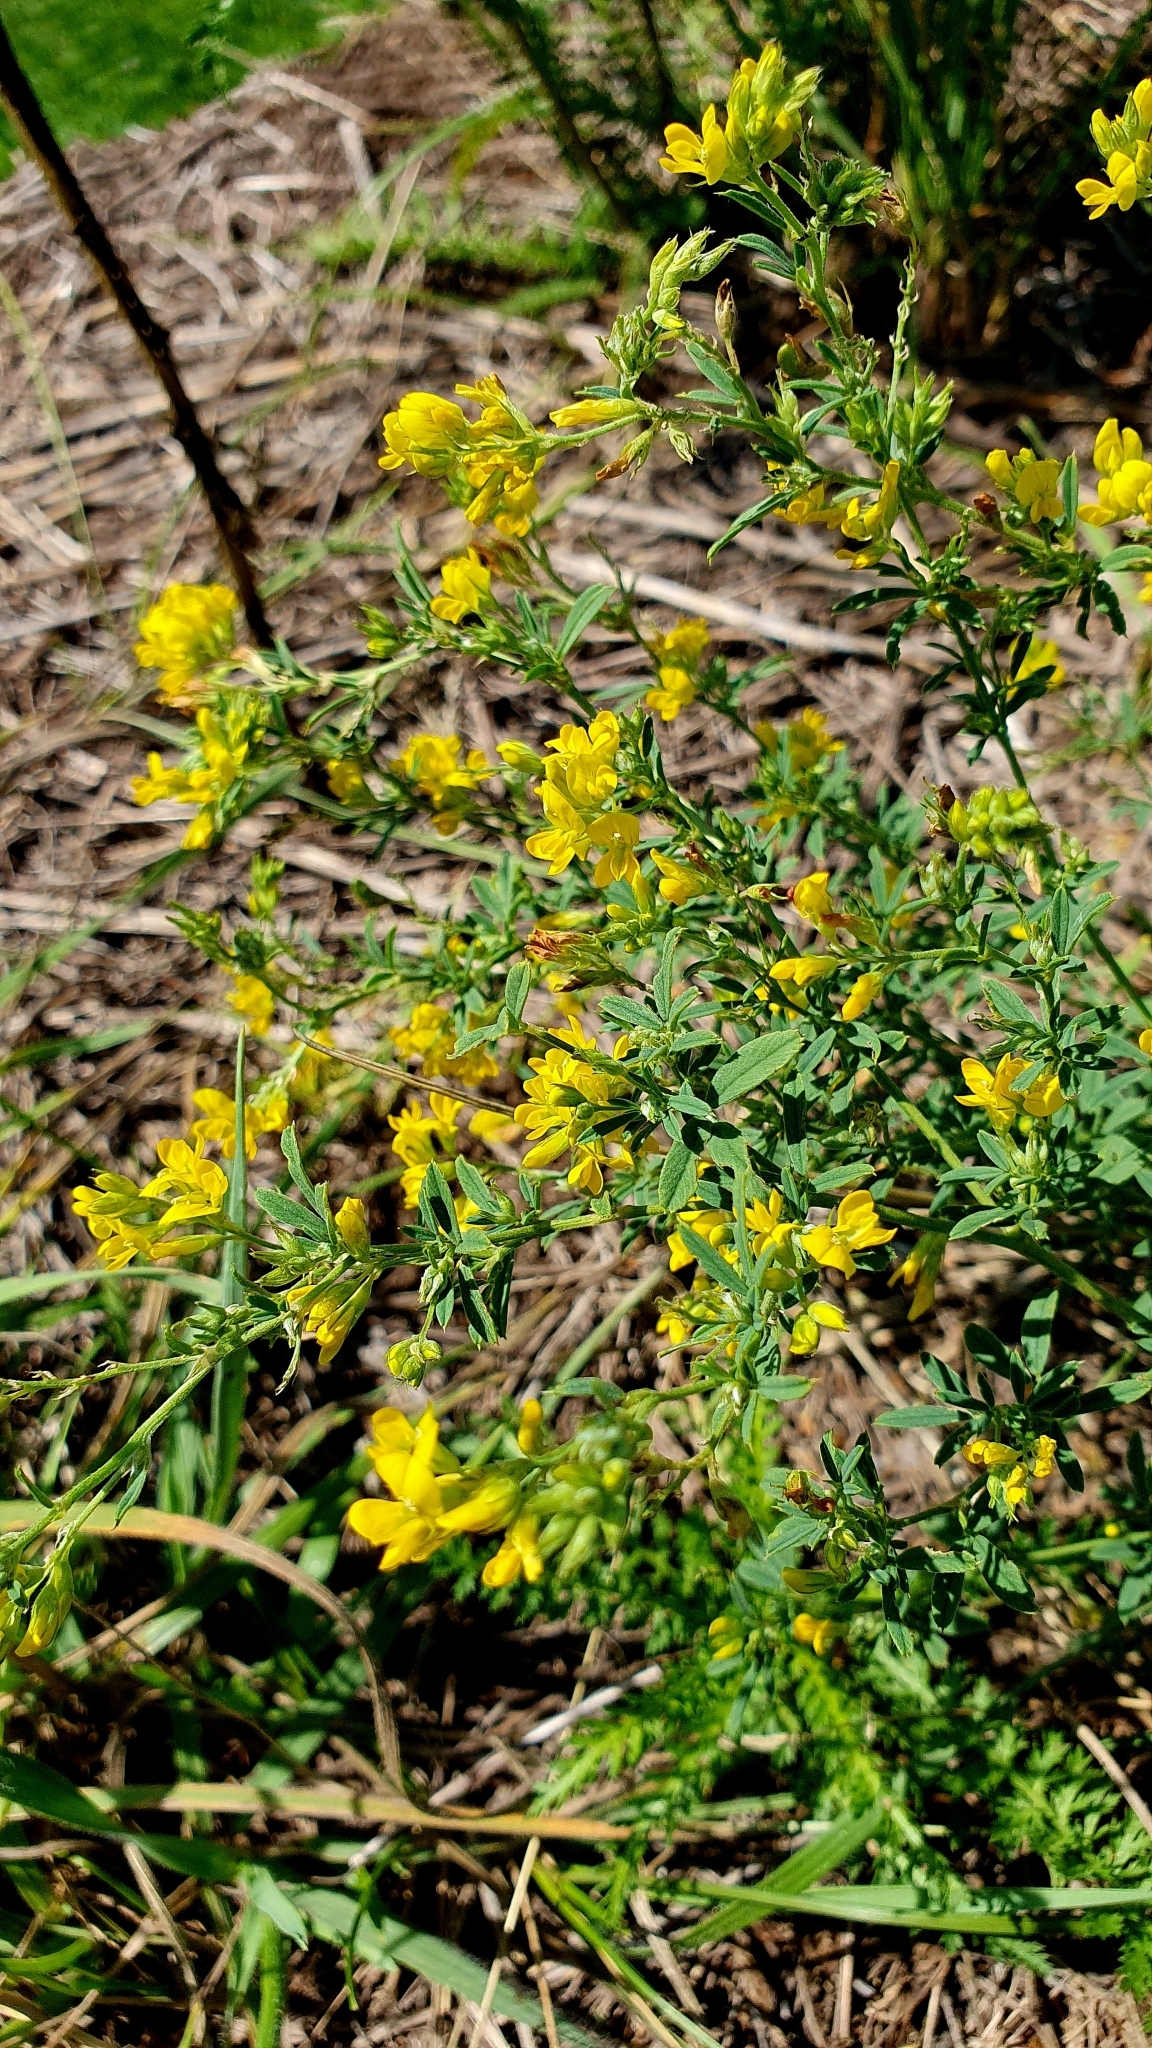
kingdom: Plantae
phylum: Tracheophyta
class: Magnoliopsida
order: Fabales
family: Fabaceae
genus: Medicago
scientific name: Medicago falcata
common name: Sickle medick
